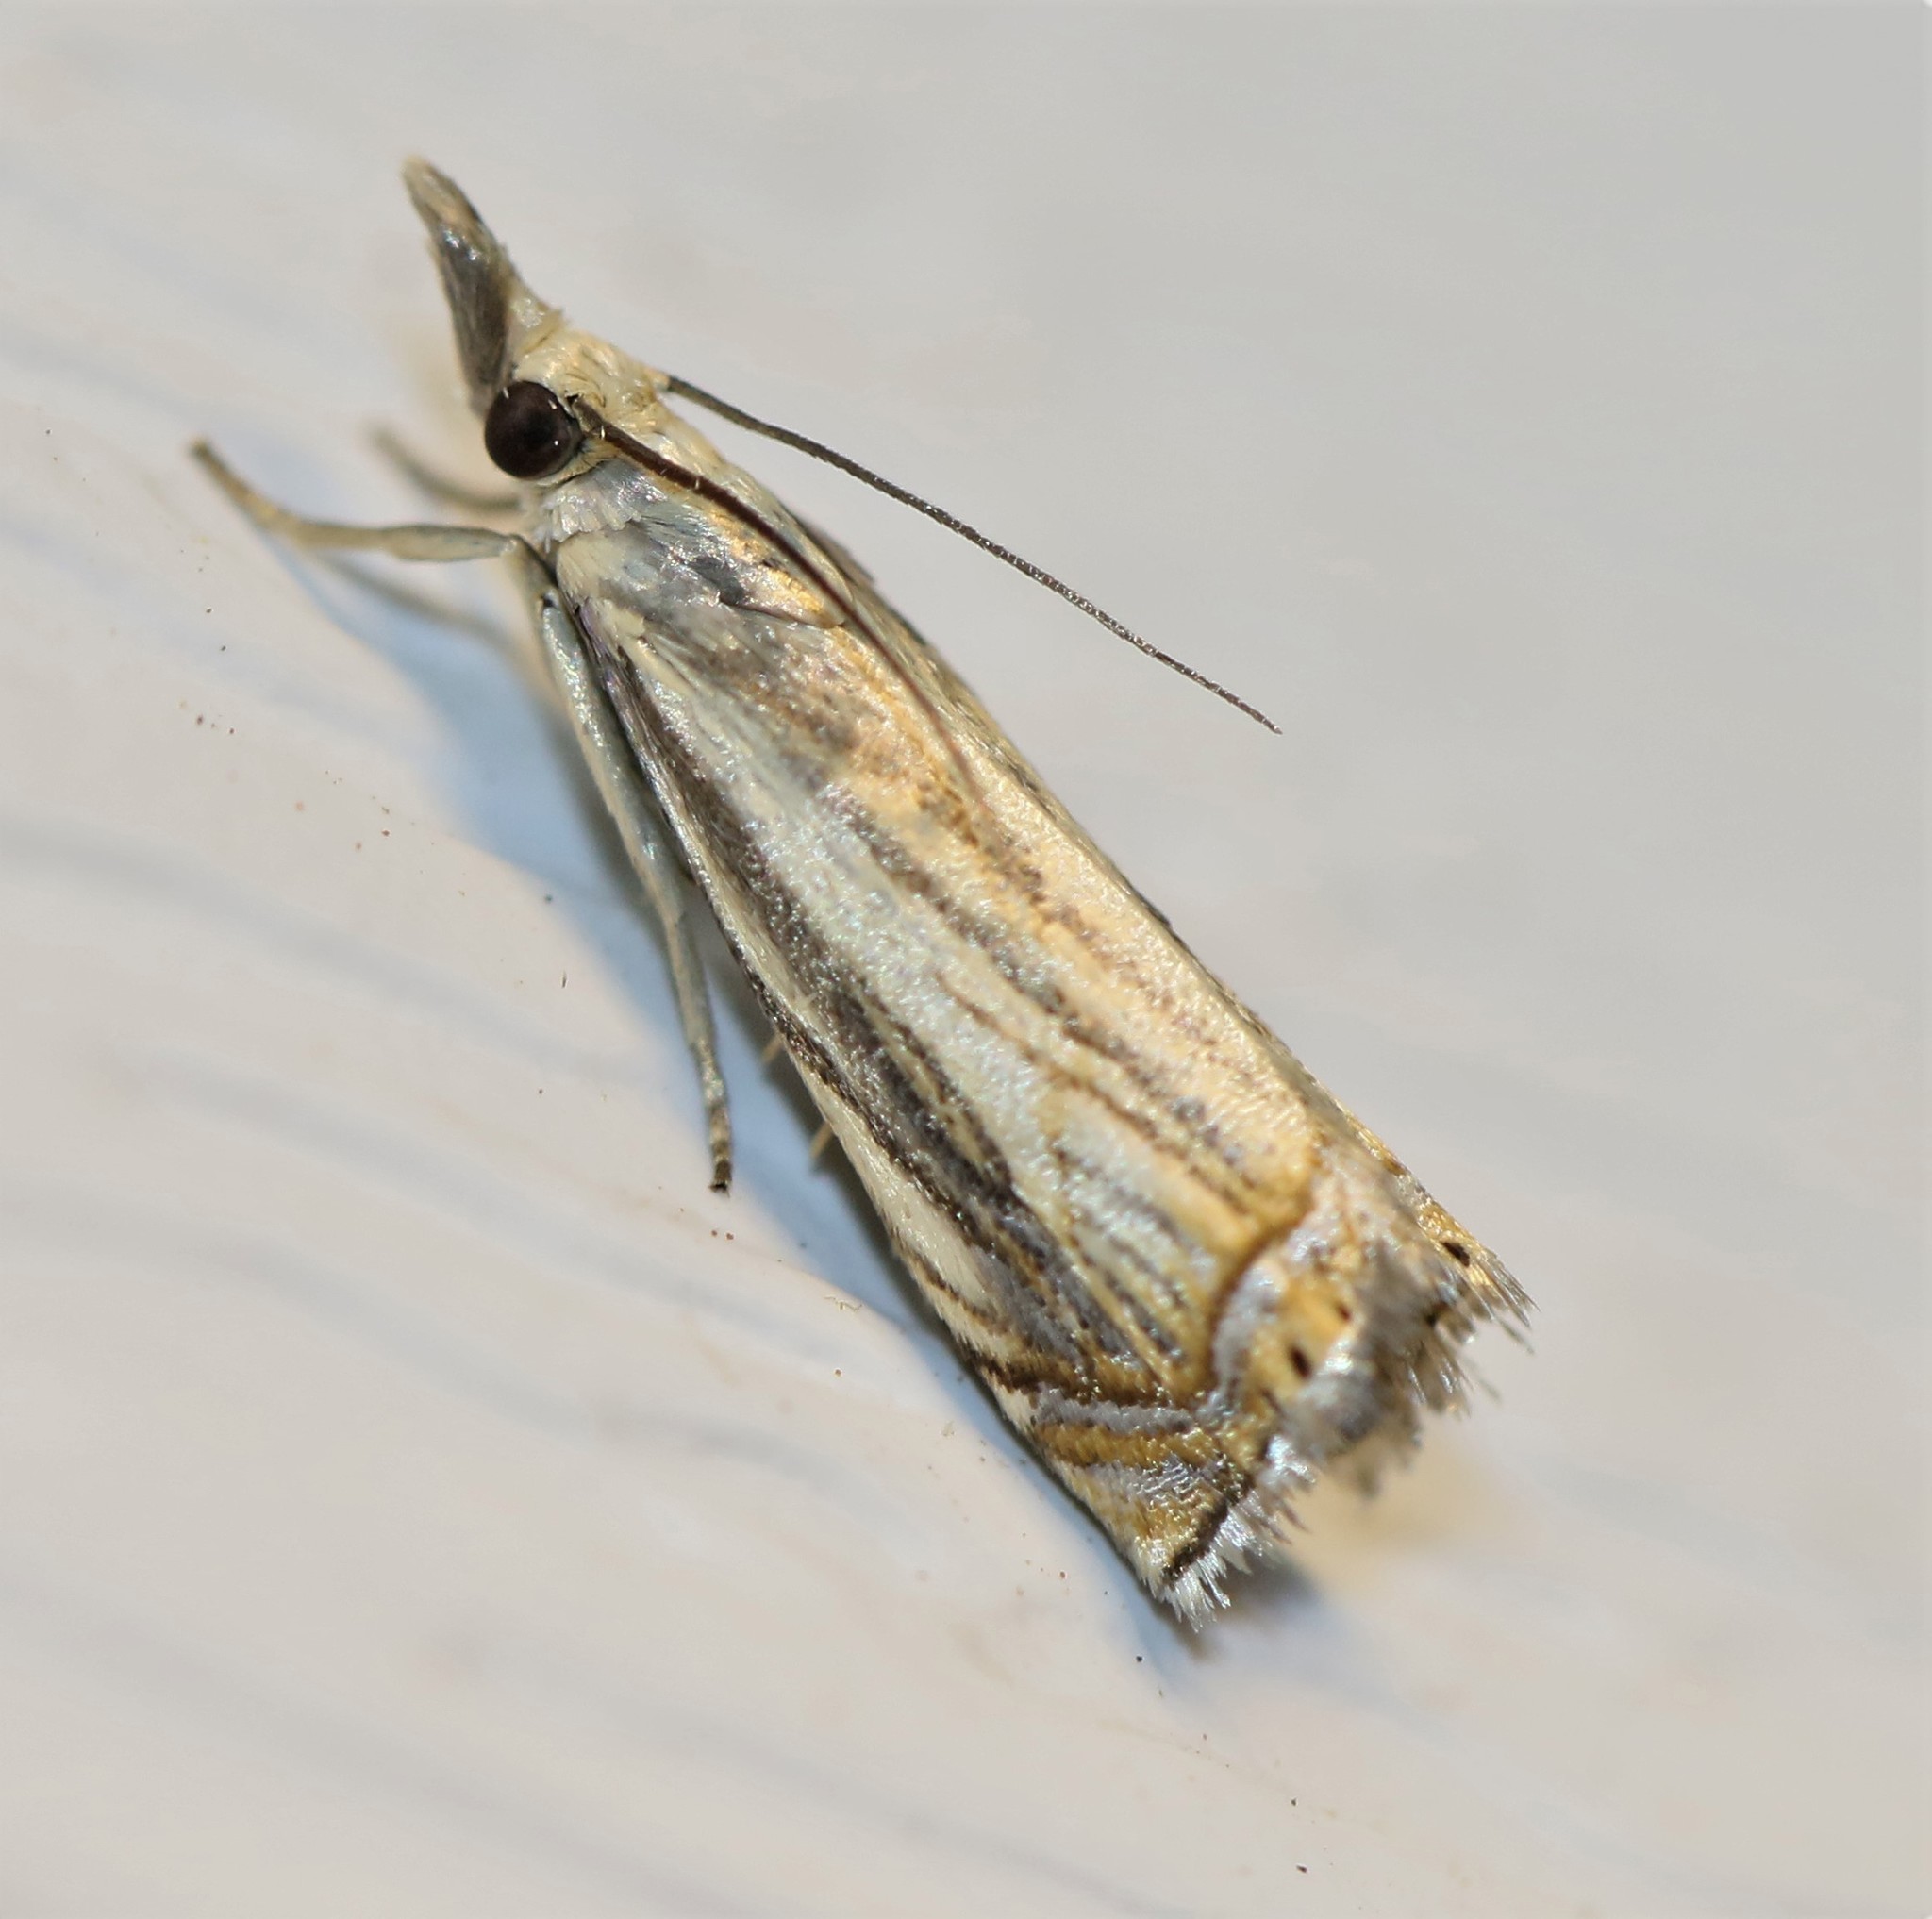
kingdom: Animalia
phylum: Arthropoda
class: Insecta
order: Lepidoptera
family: Crambidae
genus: Chrysoteuchia
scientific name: Chrysoteuchia topiarius
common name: Topiary grass-veneer
